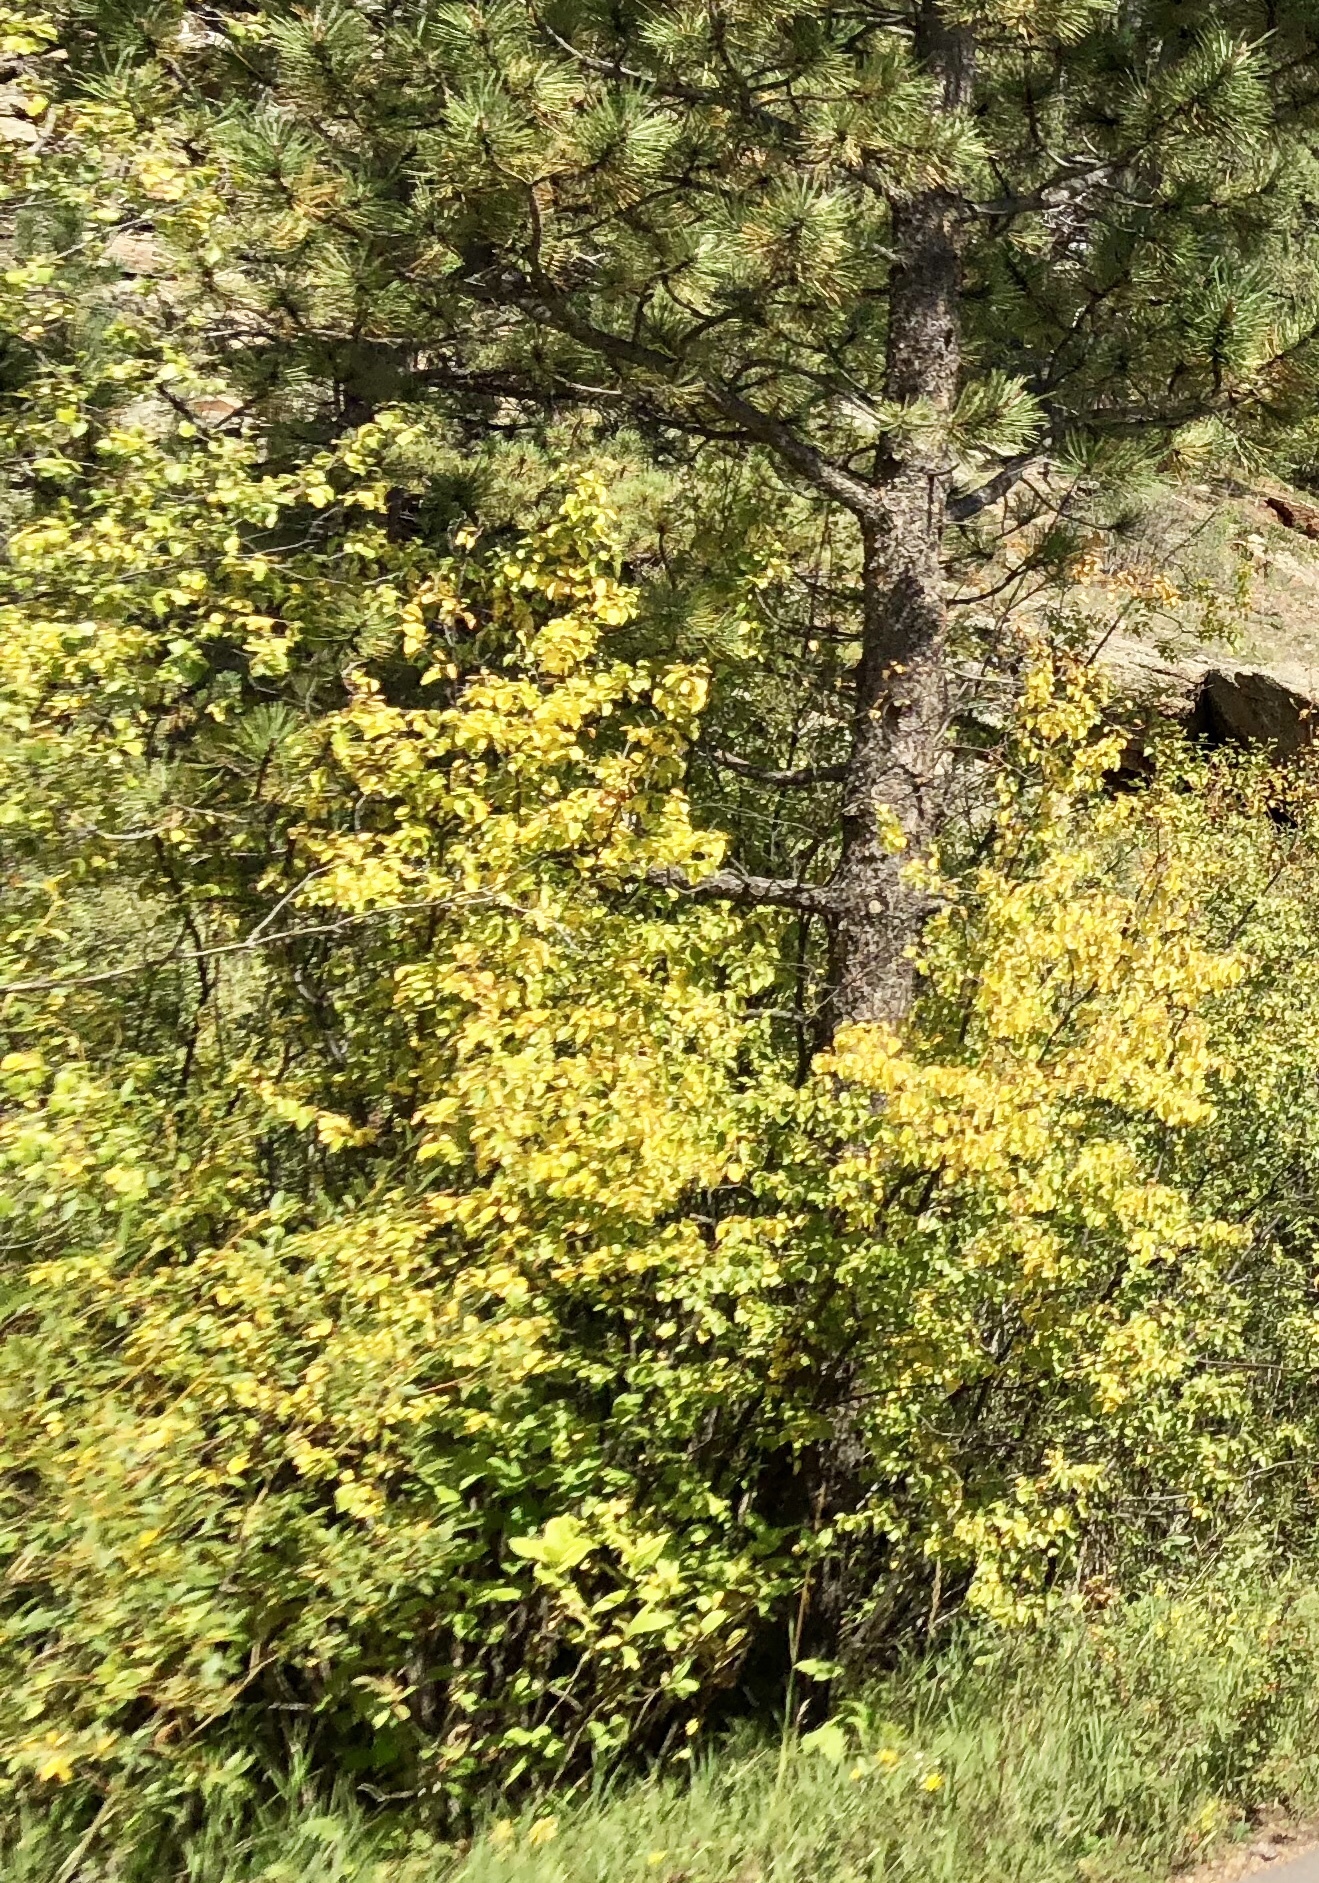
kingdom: Plantae
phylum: Tracheophyta
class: Magnoliopsida
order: Malpighiales
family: Salicaceae
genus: Populus
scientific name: Populus tremuloides
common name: Quaking aspen
